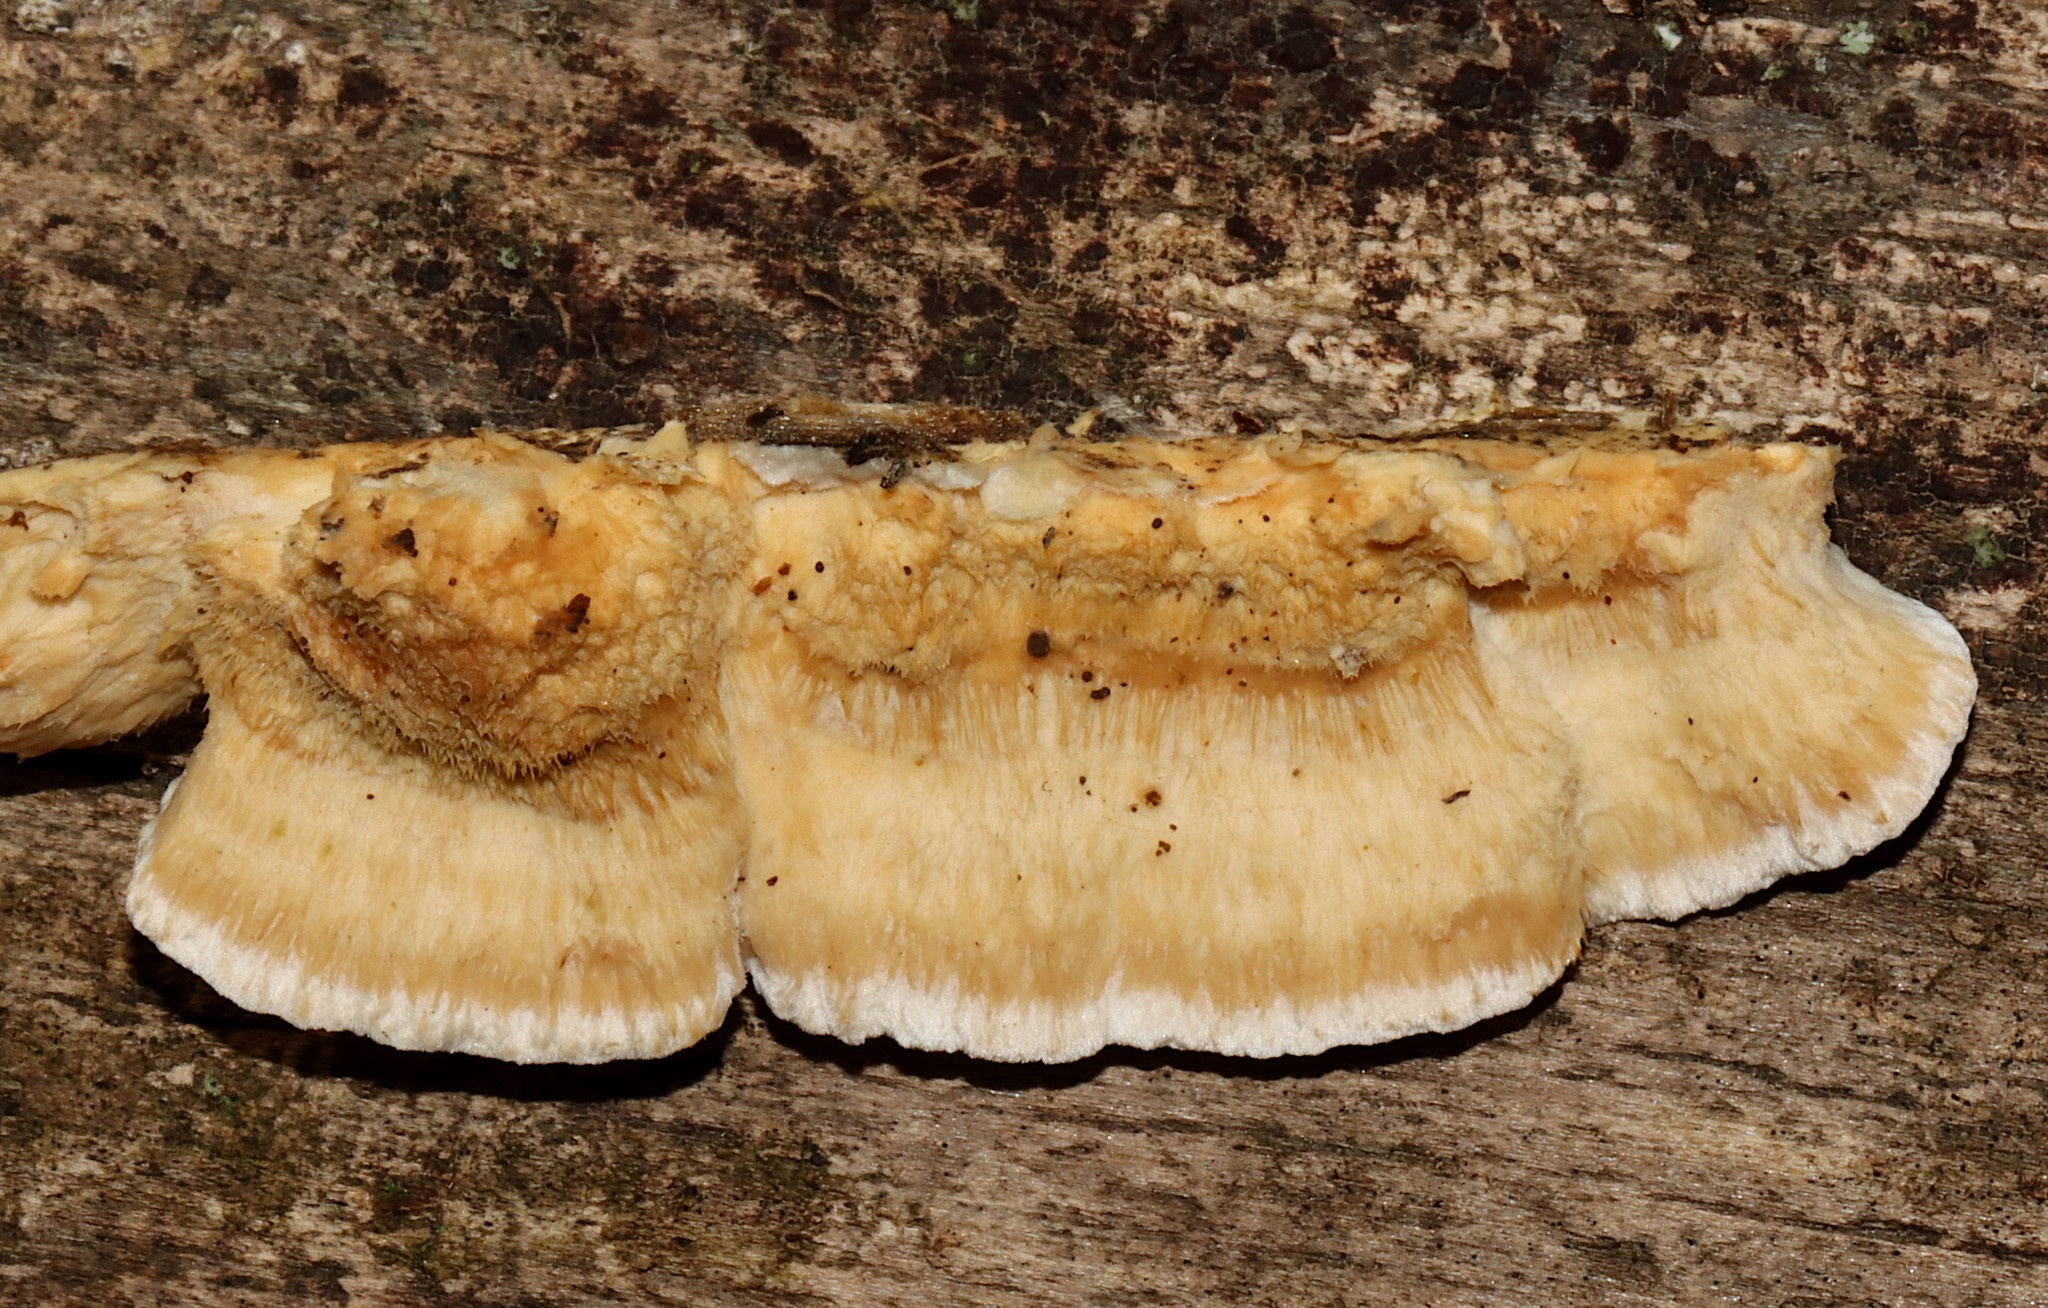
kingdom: Fungi
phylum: Basidiomycota
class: Agaricomycetes
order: Polyporales
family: Irpicaceae
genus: Trametopsis
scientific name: Trametopsis cervina
